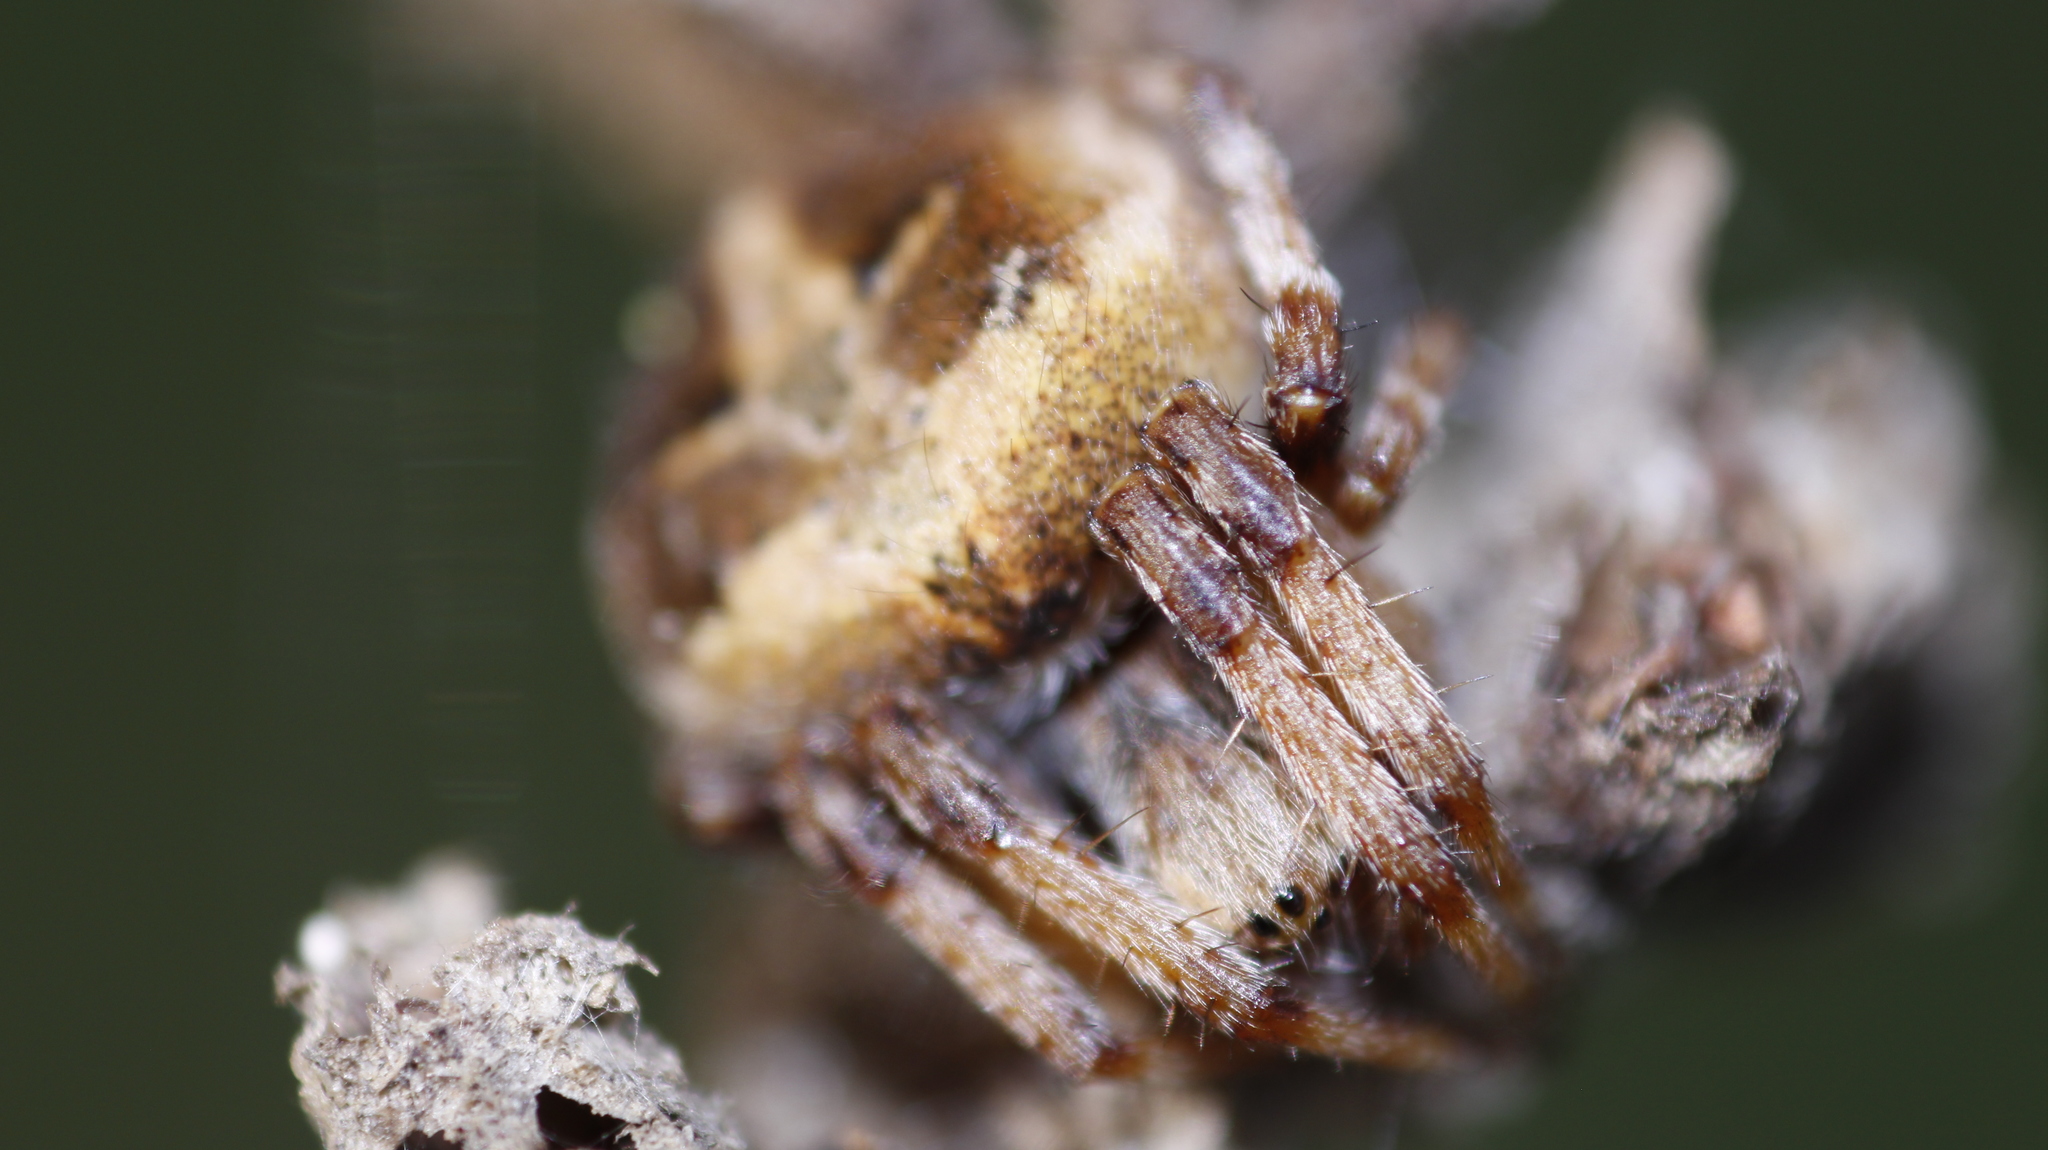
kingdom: Animalia
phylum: Arthropoda
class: Arachnida
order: Araneae
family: Araneidae
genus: Agalenatea
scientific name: Agalenatea redii
